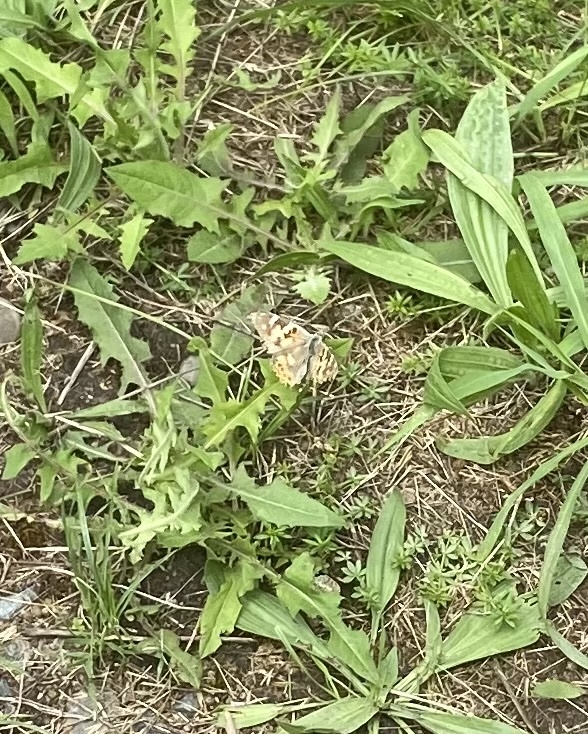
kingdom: Animalia
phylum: Arthropoda
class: Insecta
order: Lepidoptera
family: Nymphalidae
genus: Vanessa
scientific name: Vanessa cardui
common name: Painted lady
